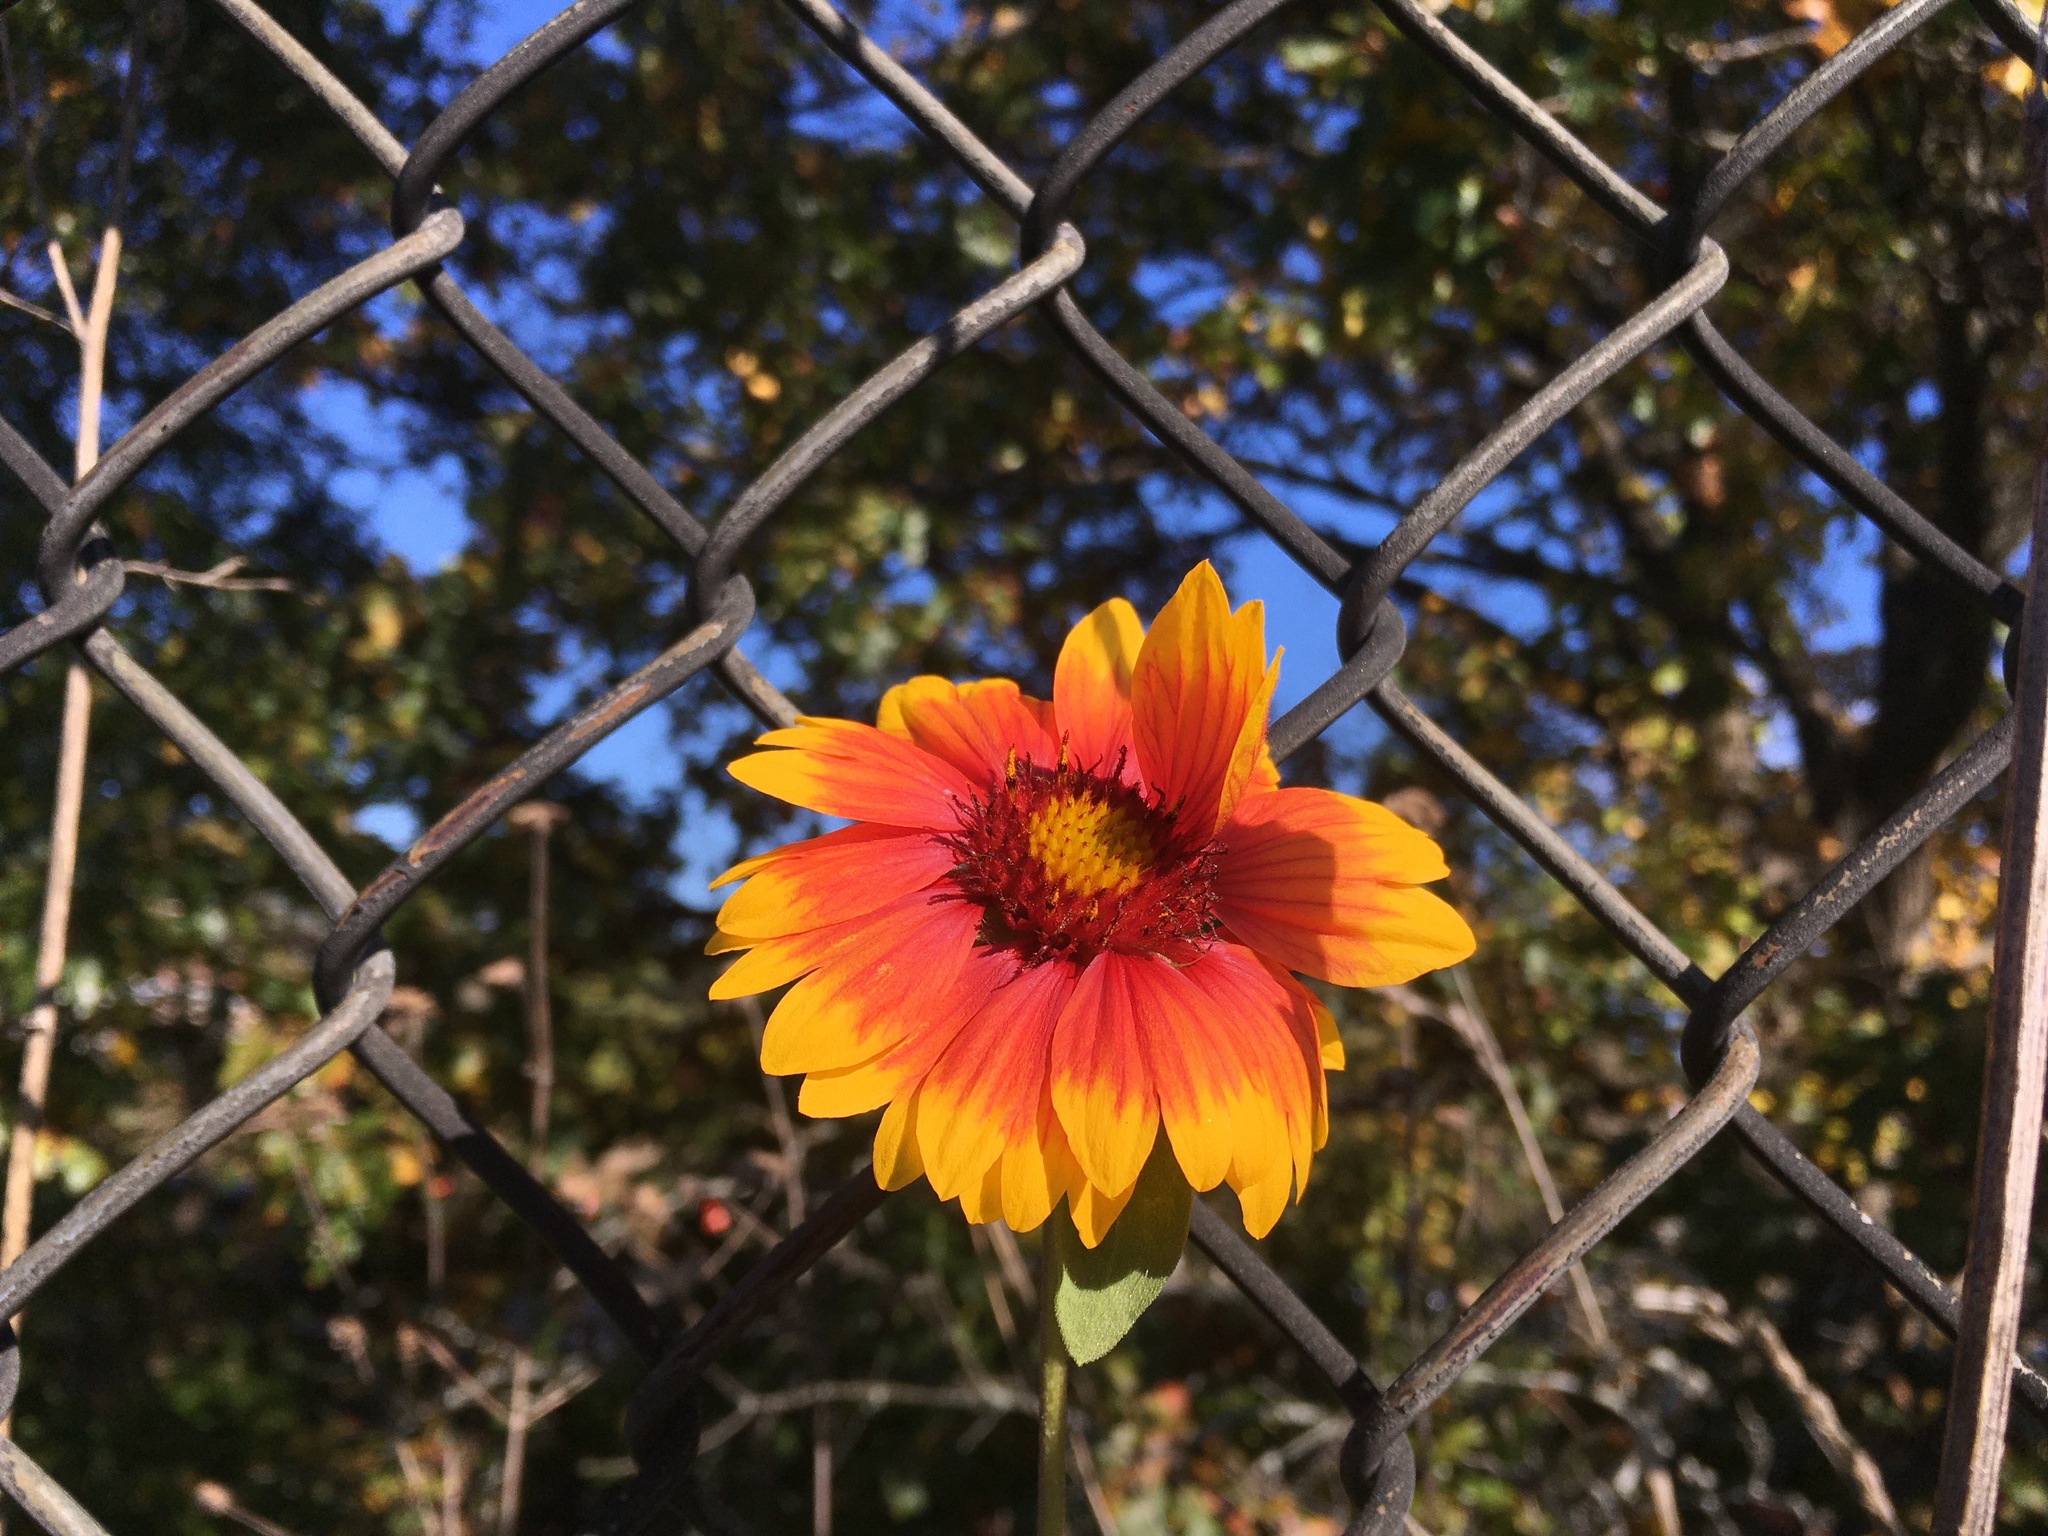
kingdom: Plantae
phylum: Tracheophyta
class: Magnoliopsida
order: Asterales
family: Asteraceae
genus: Gaillardia
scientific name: Gaillardia pulchella
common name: Firewheel
